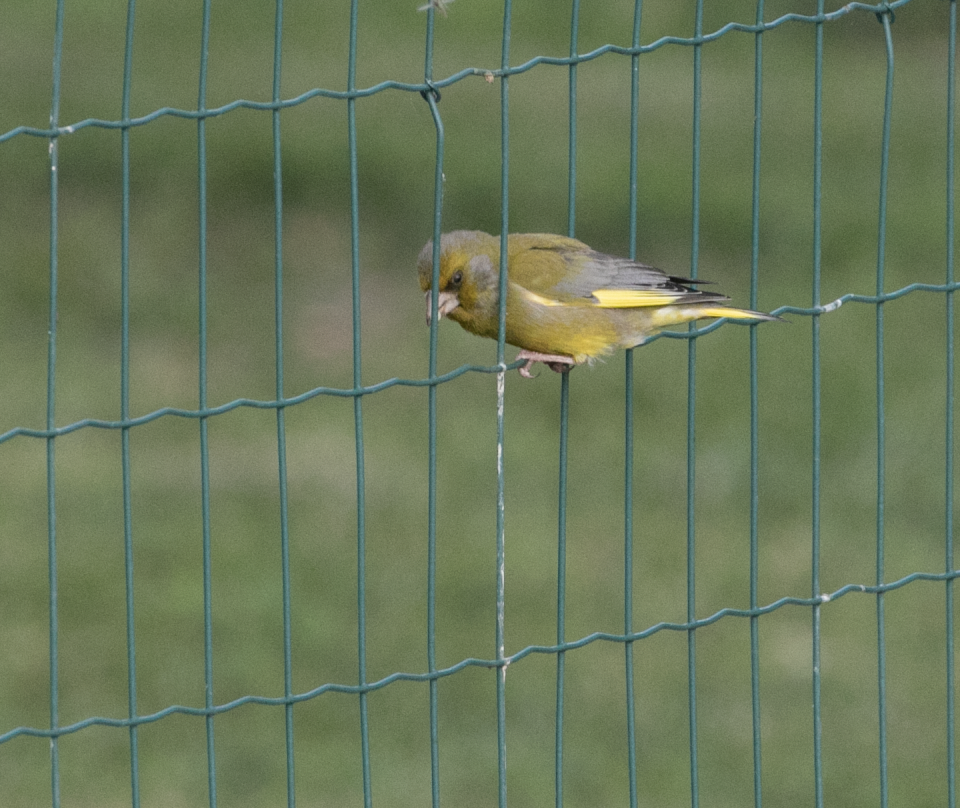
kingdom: Plantae
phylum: Tracheophyta
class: Liliopsida
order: Poales
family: Poaceae
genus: Chloris
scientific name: Chloris chloris
